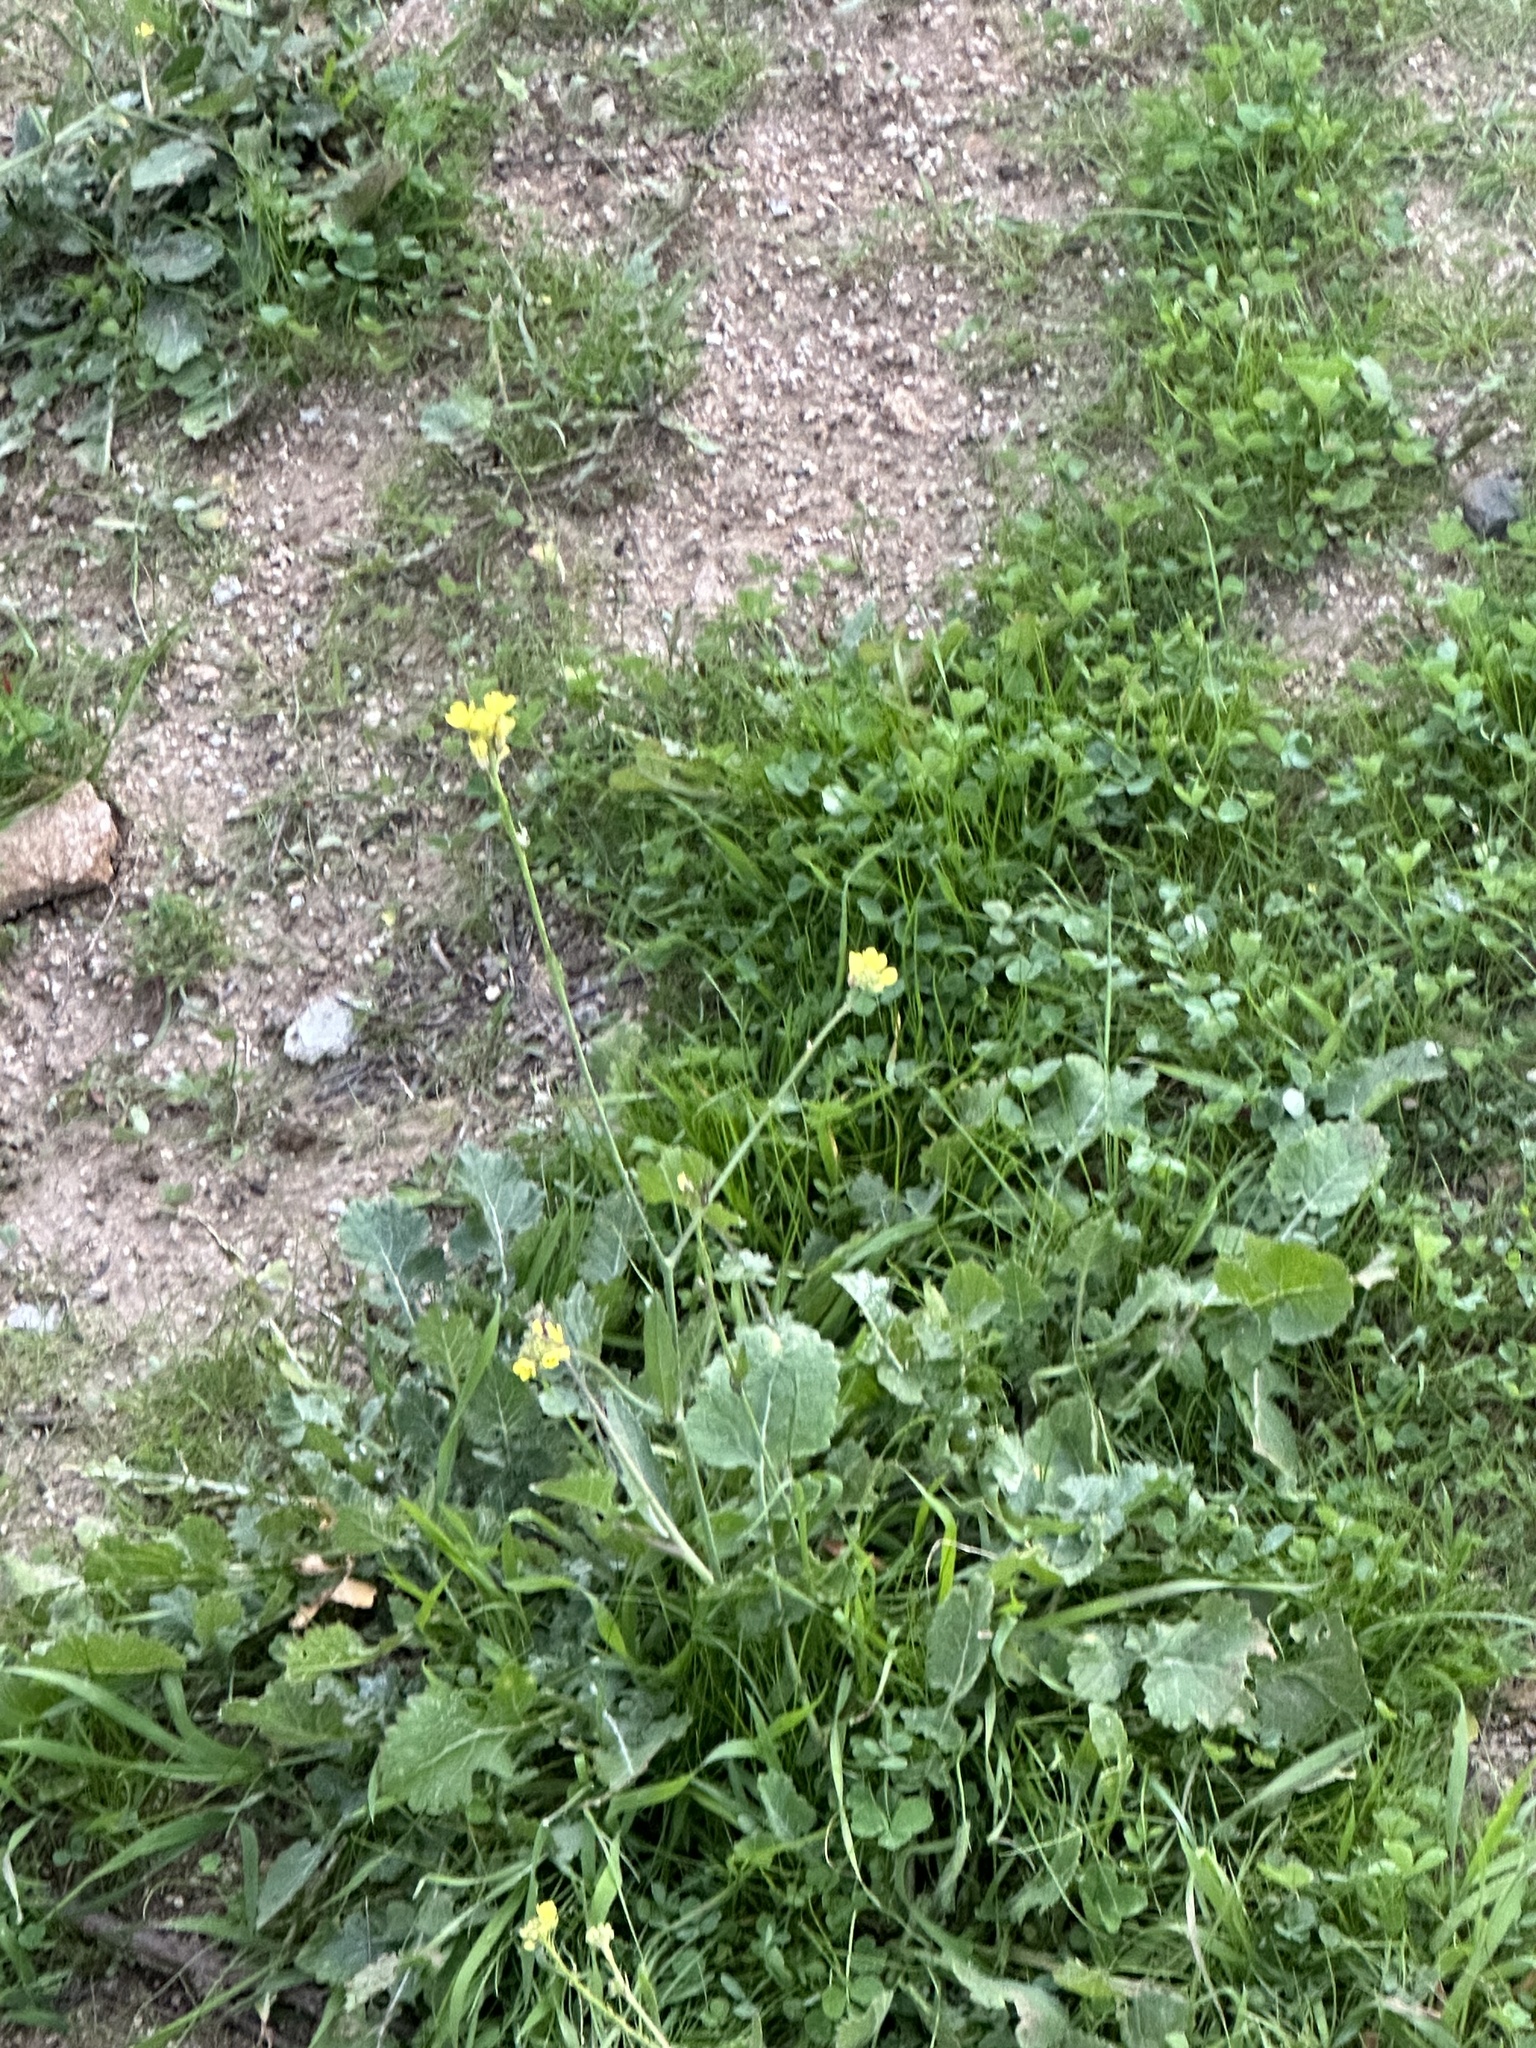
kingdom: Plantae
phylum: Tracheophyta
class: Magnoliopsida
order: Brassicales
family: Brassicaceae
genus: Hirschfeldia
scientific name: Hirschfeldia incana
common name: Hoary mustard
